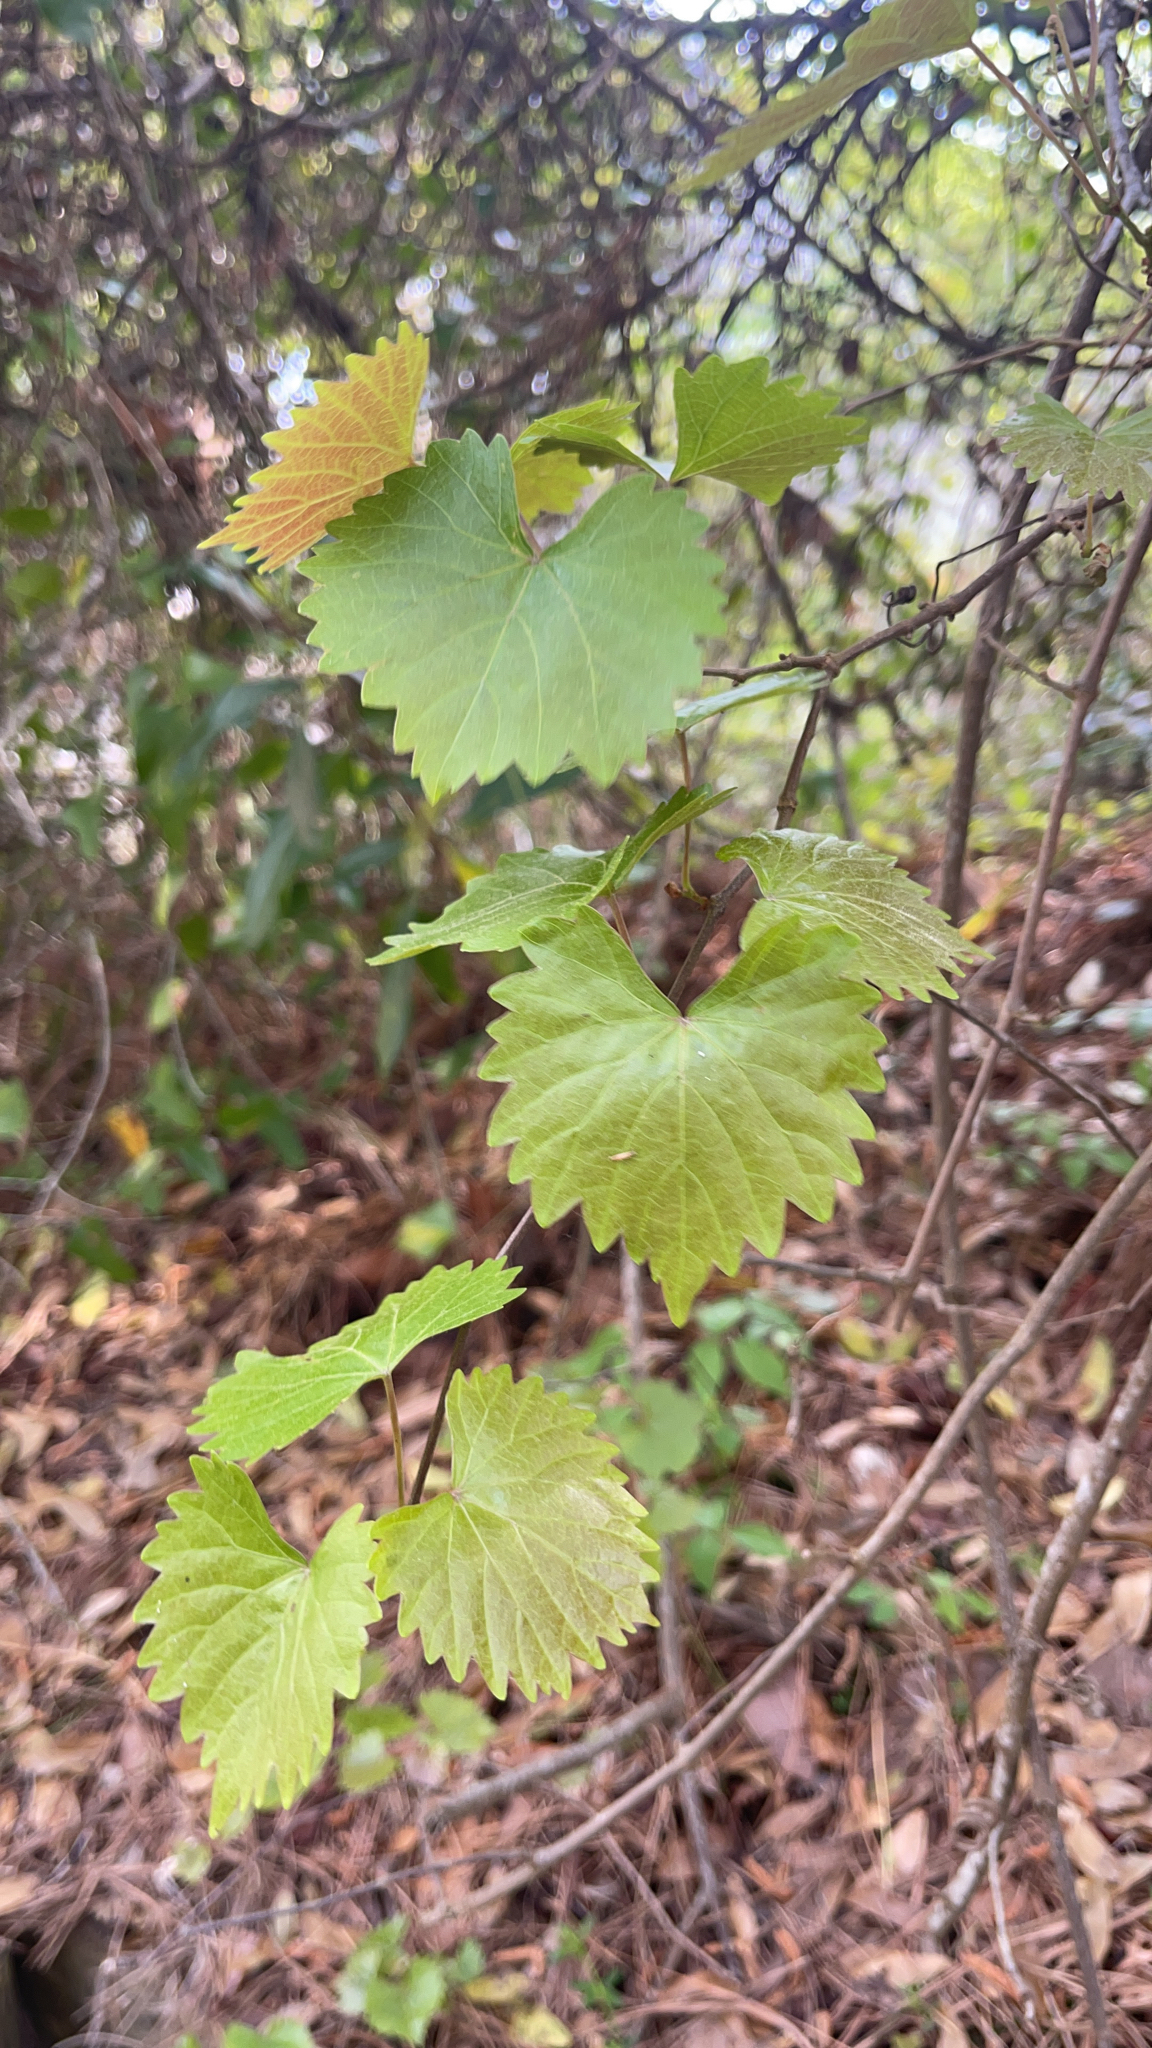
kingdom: Plantae
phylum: Tracheophyta
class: Magnoliopsida
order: Vitales
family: Vitaceae
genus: Vitis
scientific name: Vitis rotundifolia
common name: Muscadine grape
